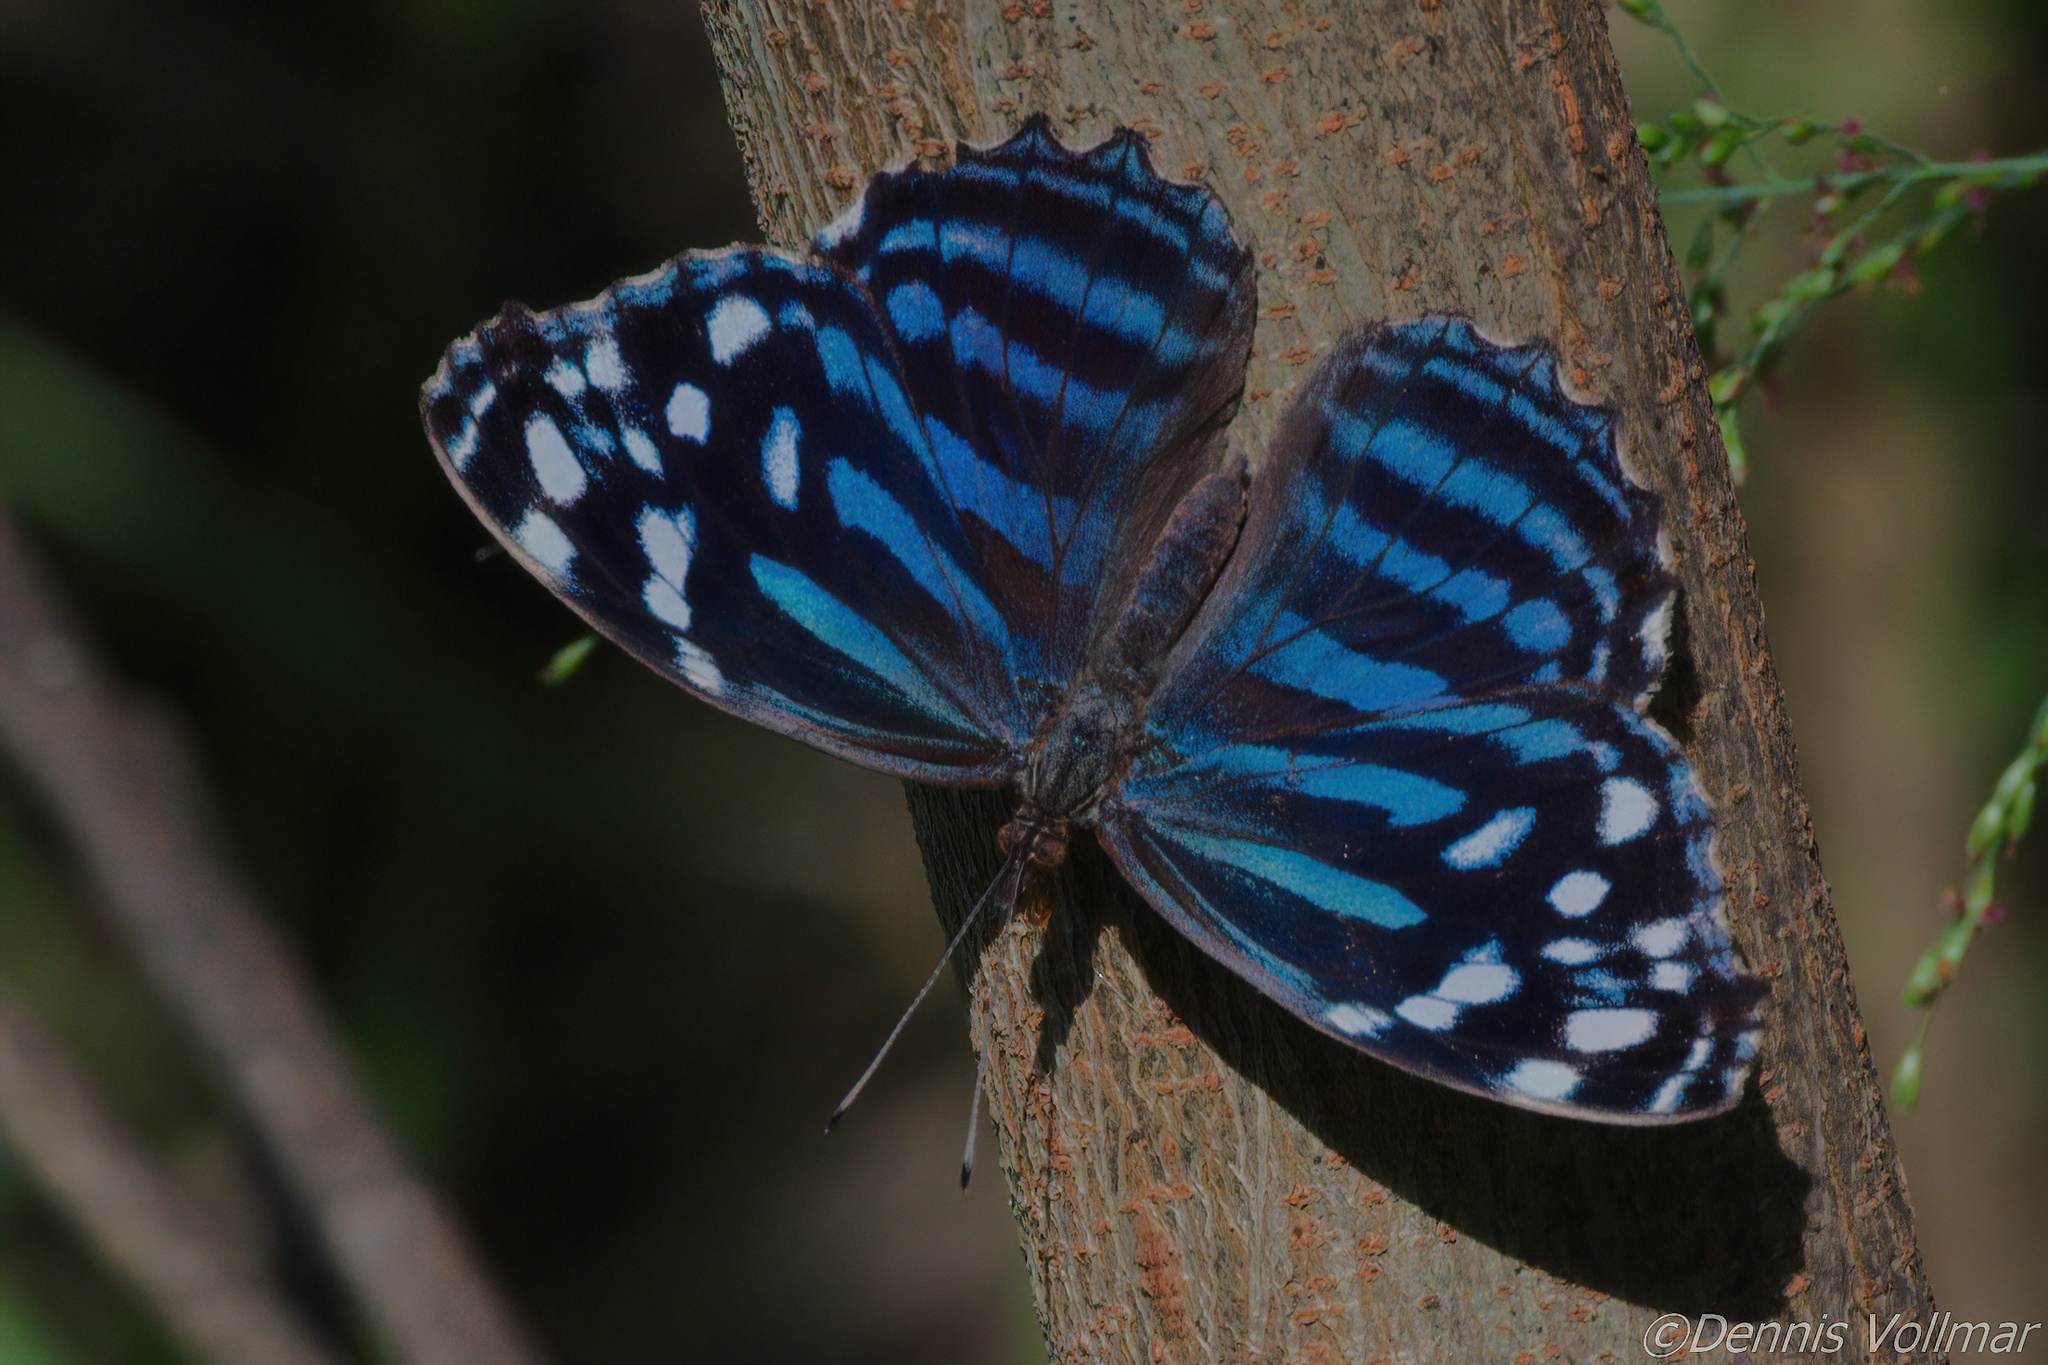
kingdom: Animalia
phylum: Arthropoda
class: Insecta
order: Lepidoptera
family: Nymphalidae
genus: Myscelia
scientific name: Myscelia ethusa
